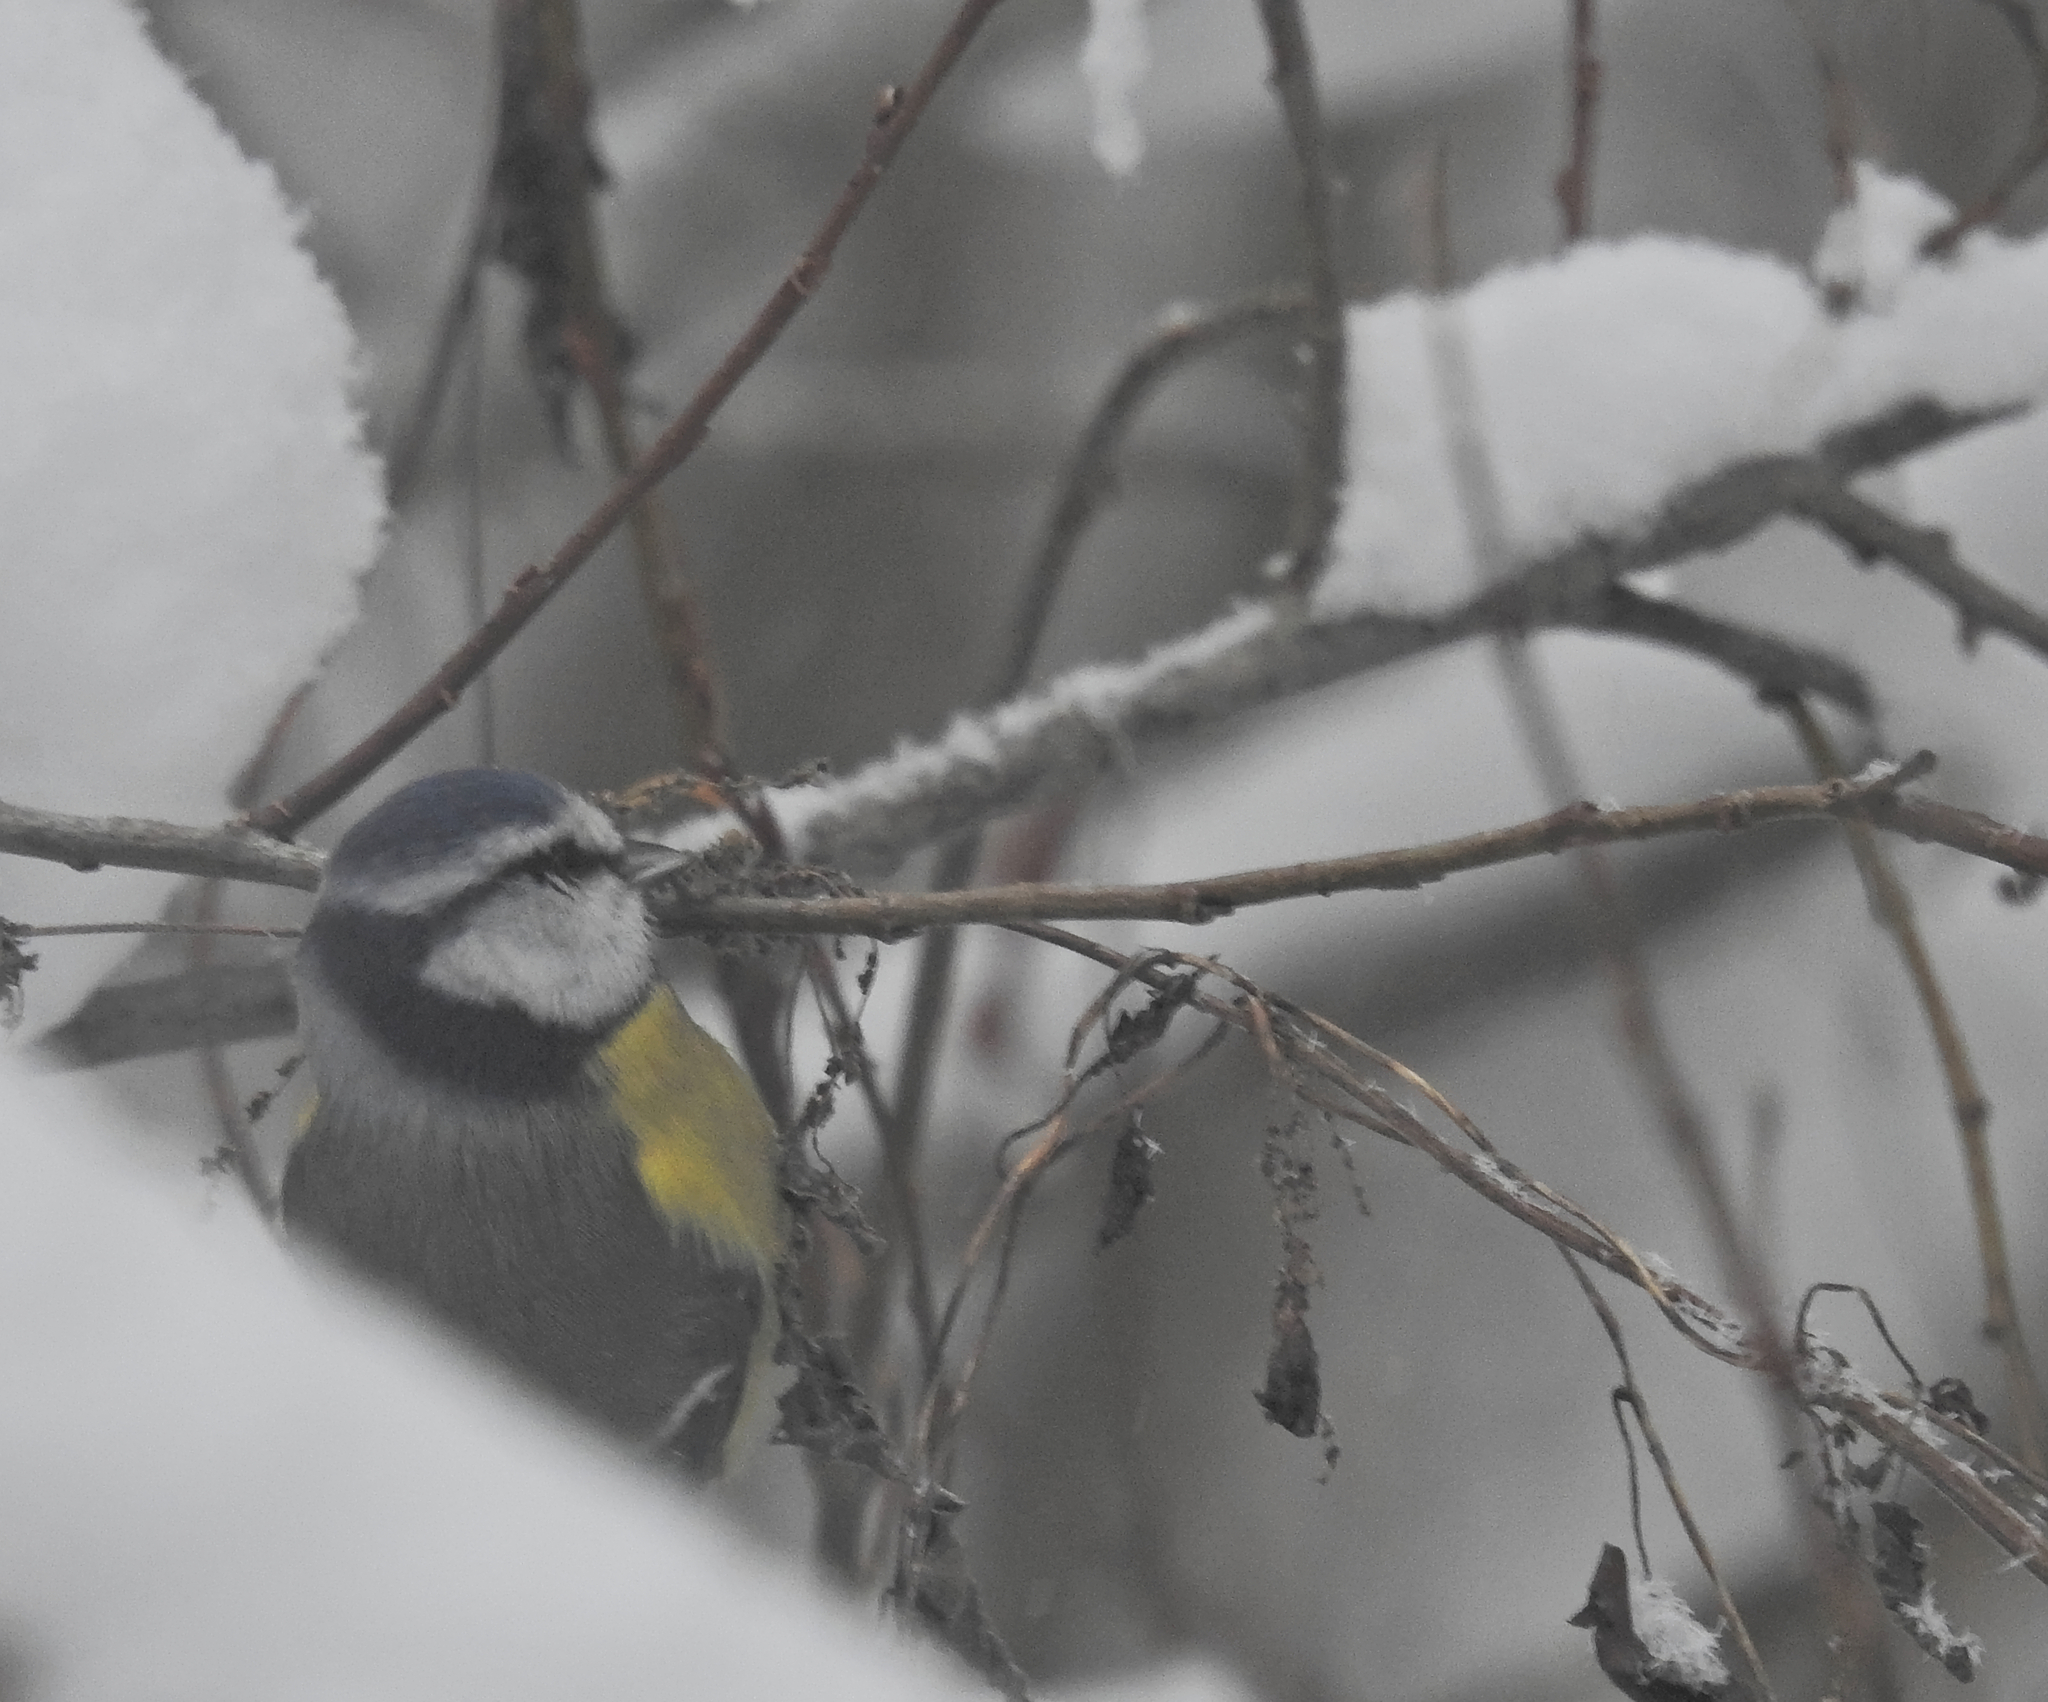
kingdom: Animalia
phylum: Chordata
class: Aves
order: Passeriformes
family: Paridae
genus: Cyanistes
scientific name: Cyanistes caeruleus
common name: Eurasian blue tit
